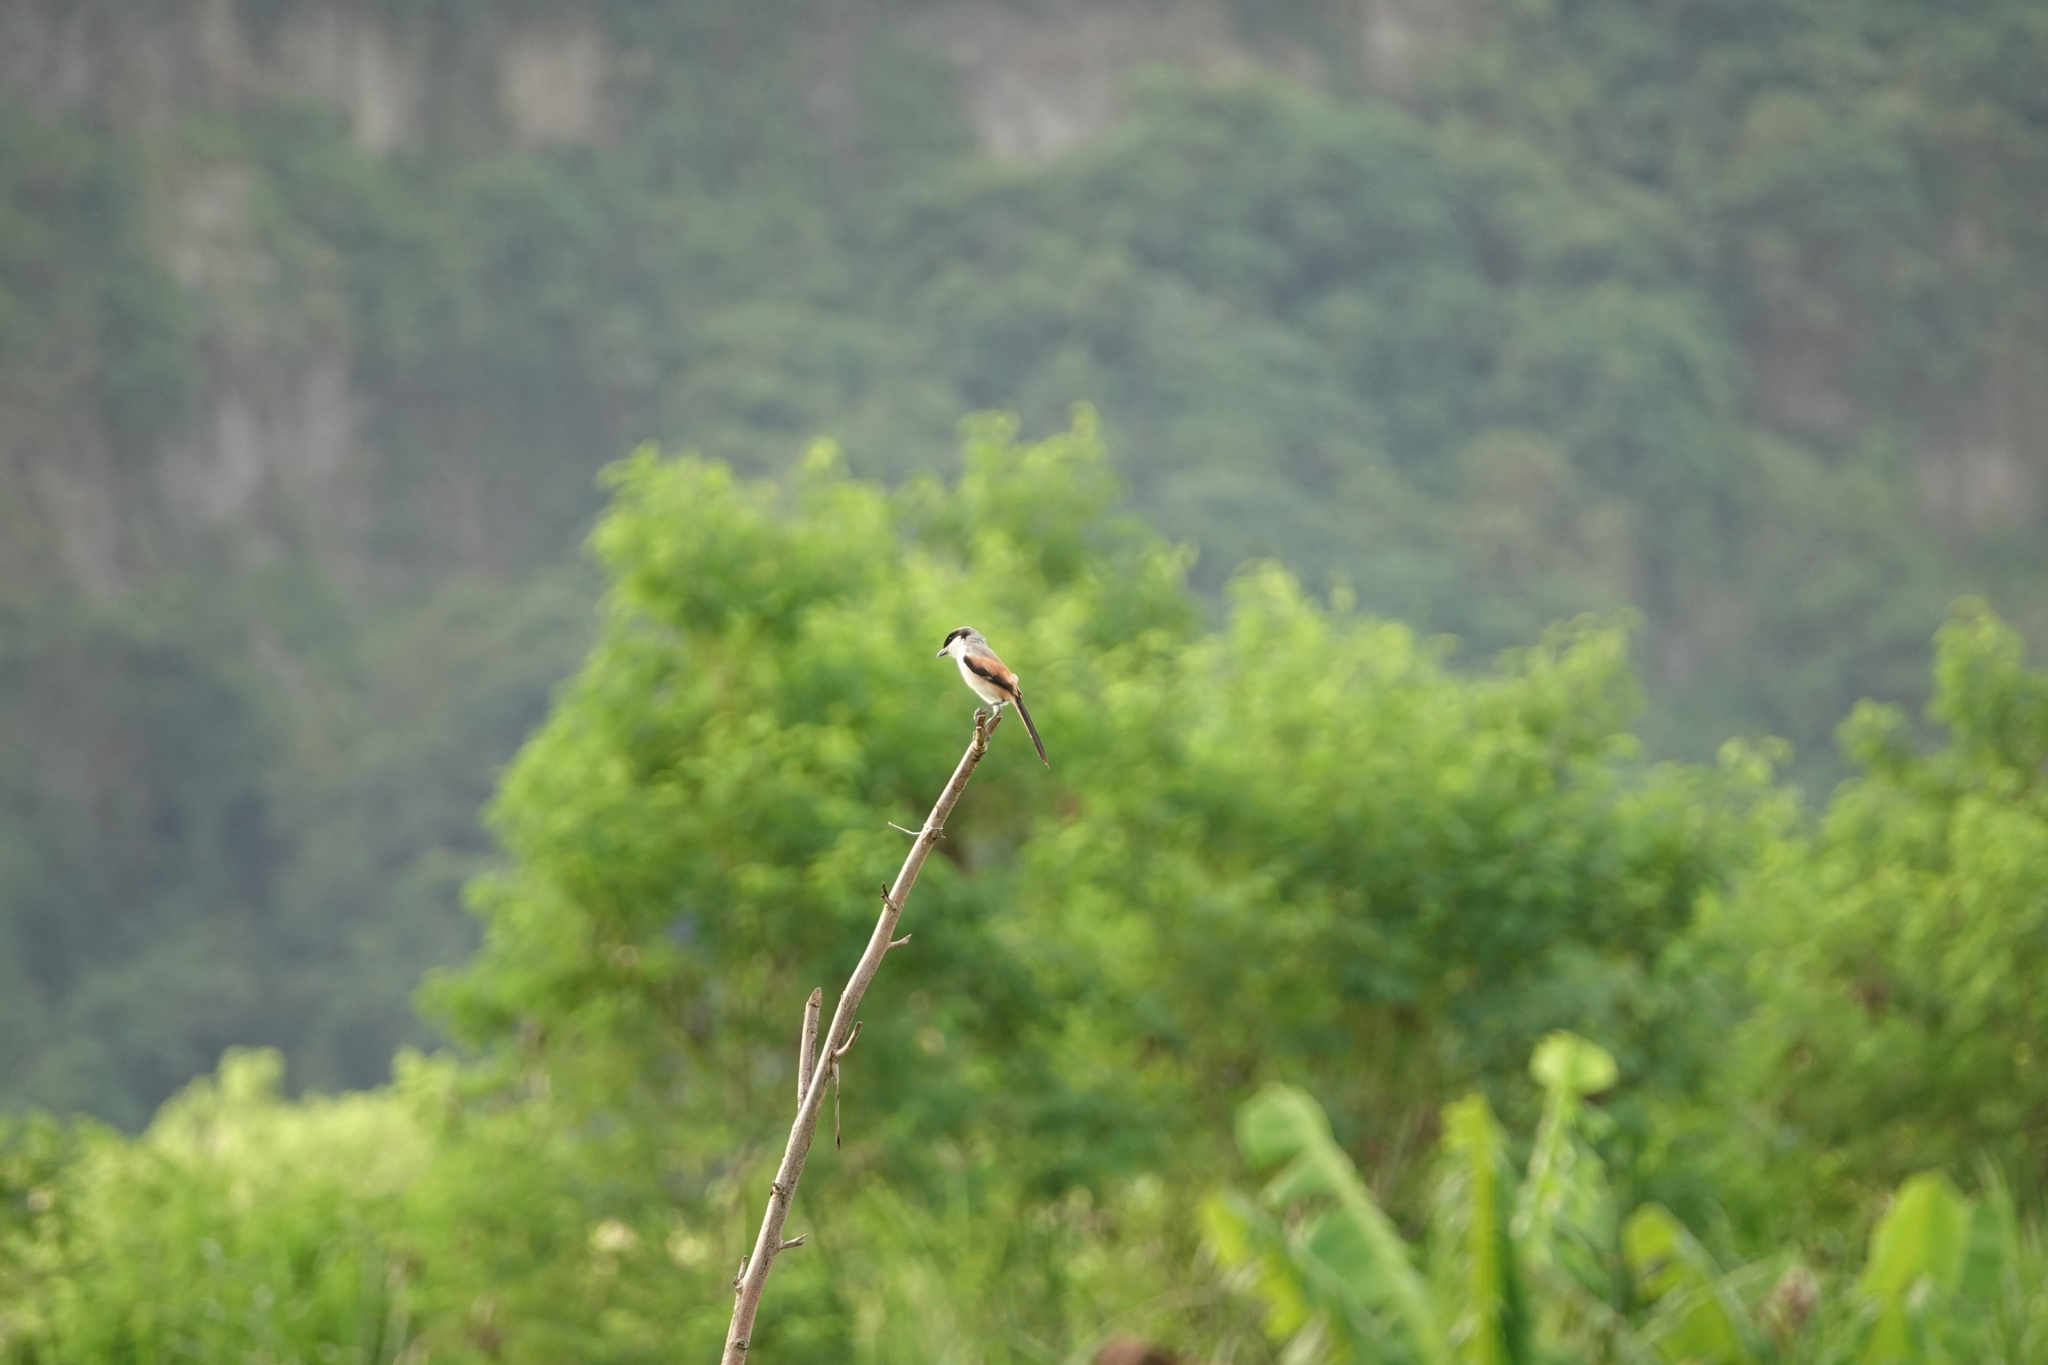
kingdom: Animalia
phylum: Chordata
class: Aves
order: Passeriformes
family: Laniidae
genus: Lanius
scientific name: Lanius schach
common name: Long-tailed shrike
